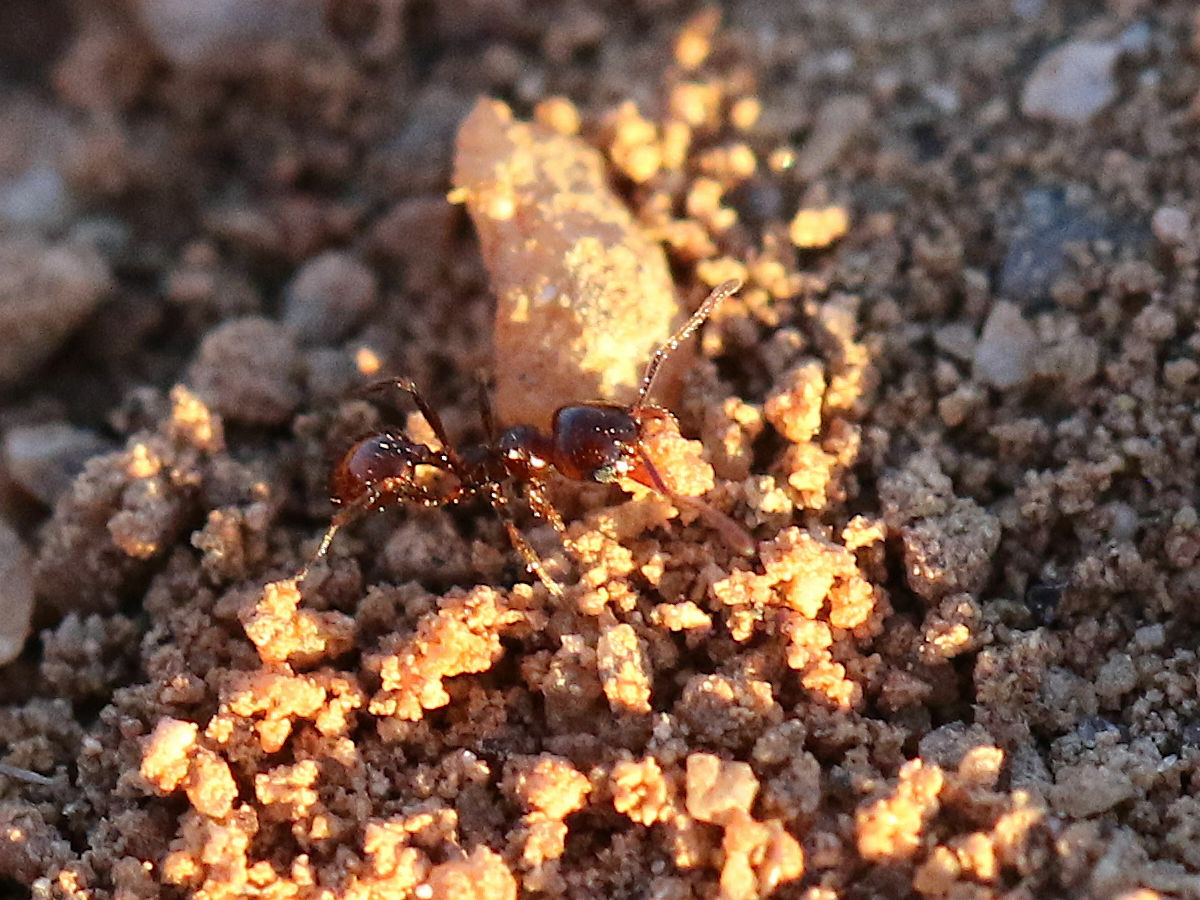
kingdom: Animalia
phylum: Arthropoda
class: Insecta
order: Hymenoptera
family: Formicidae
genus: Pheidole
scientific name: Pheidole xerophila
